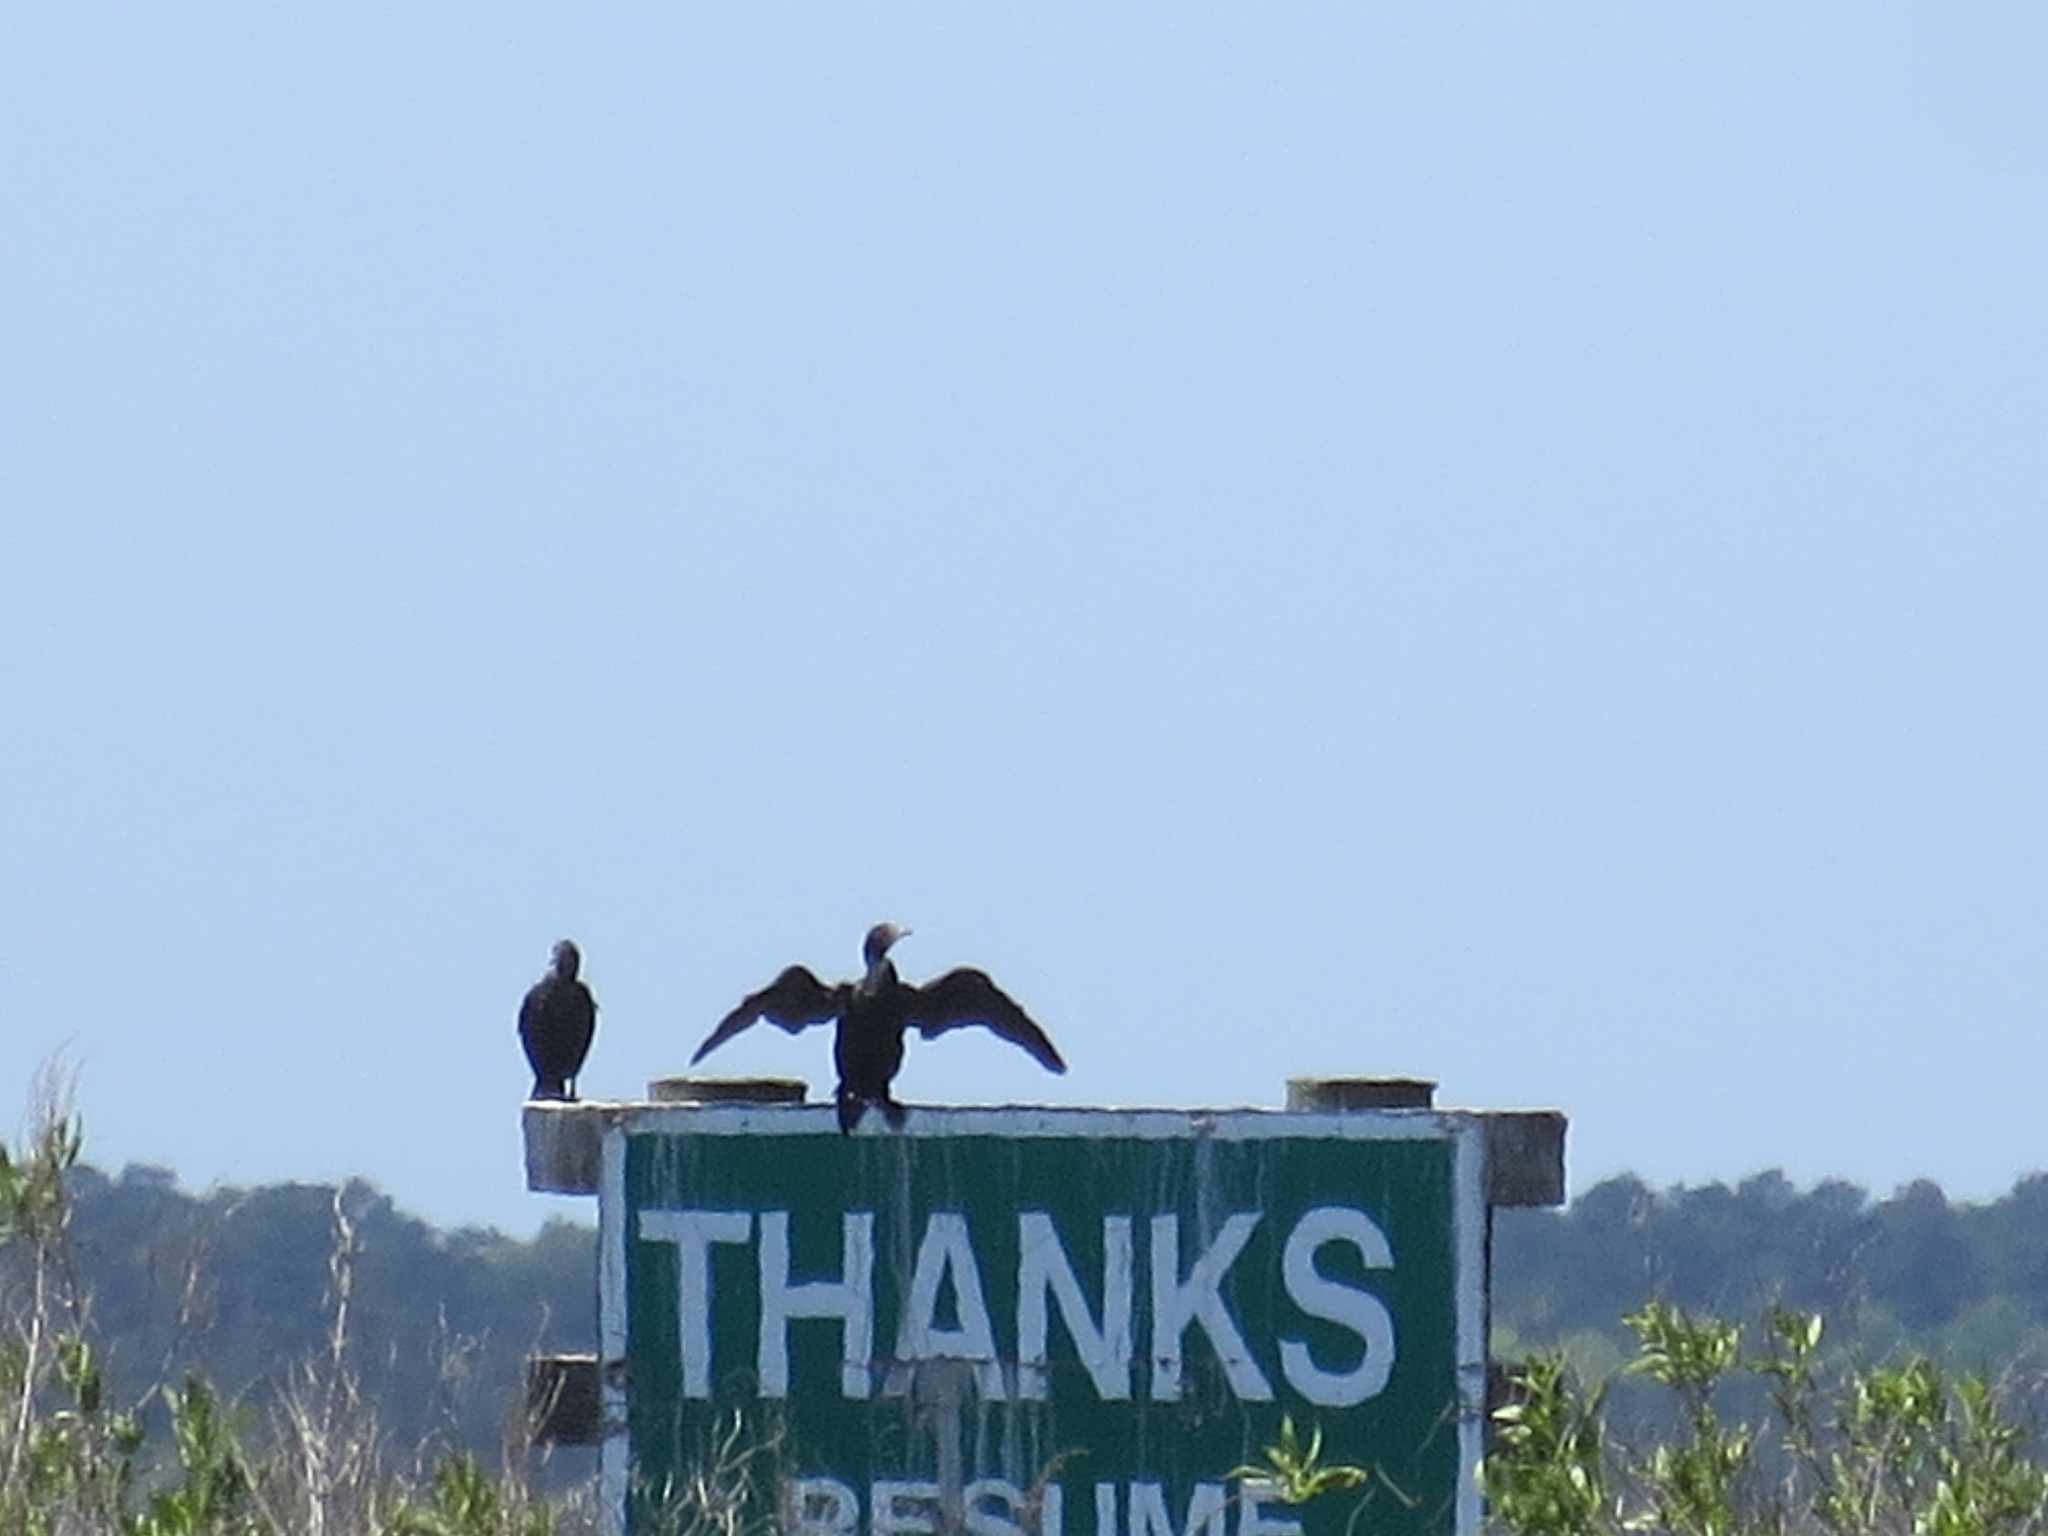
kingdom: Animalia
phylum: Chordata
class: Aves
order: Suliformes
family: Phalacrocoracidae
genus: Phalacrocorax
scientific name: Phalacrocorax auritus
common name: Double-crested cormorant
